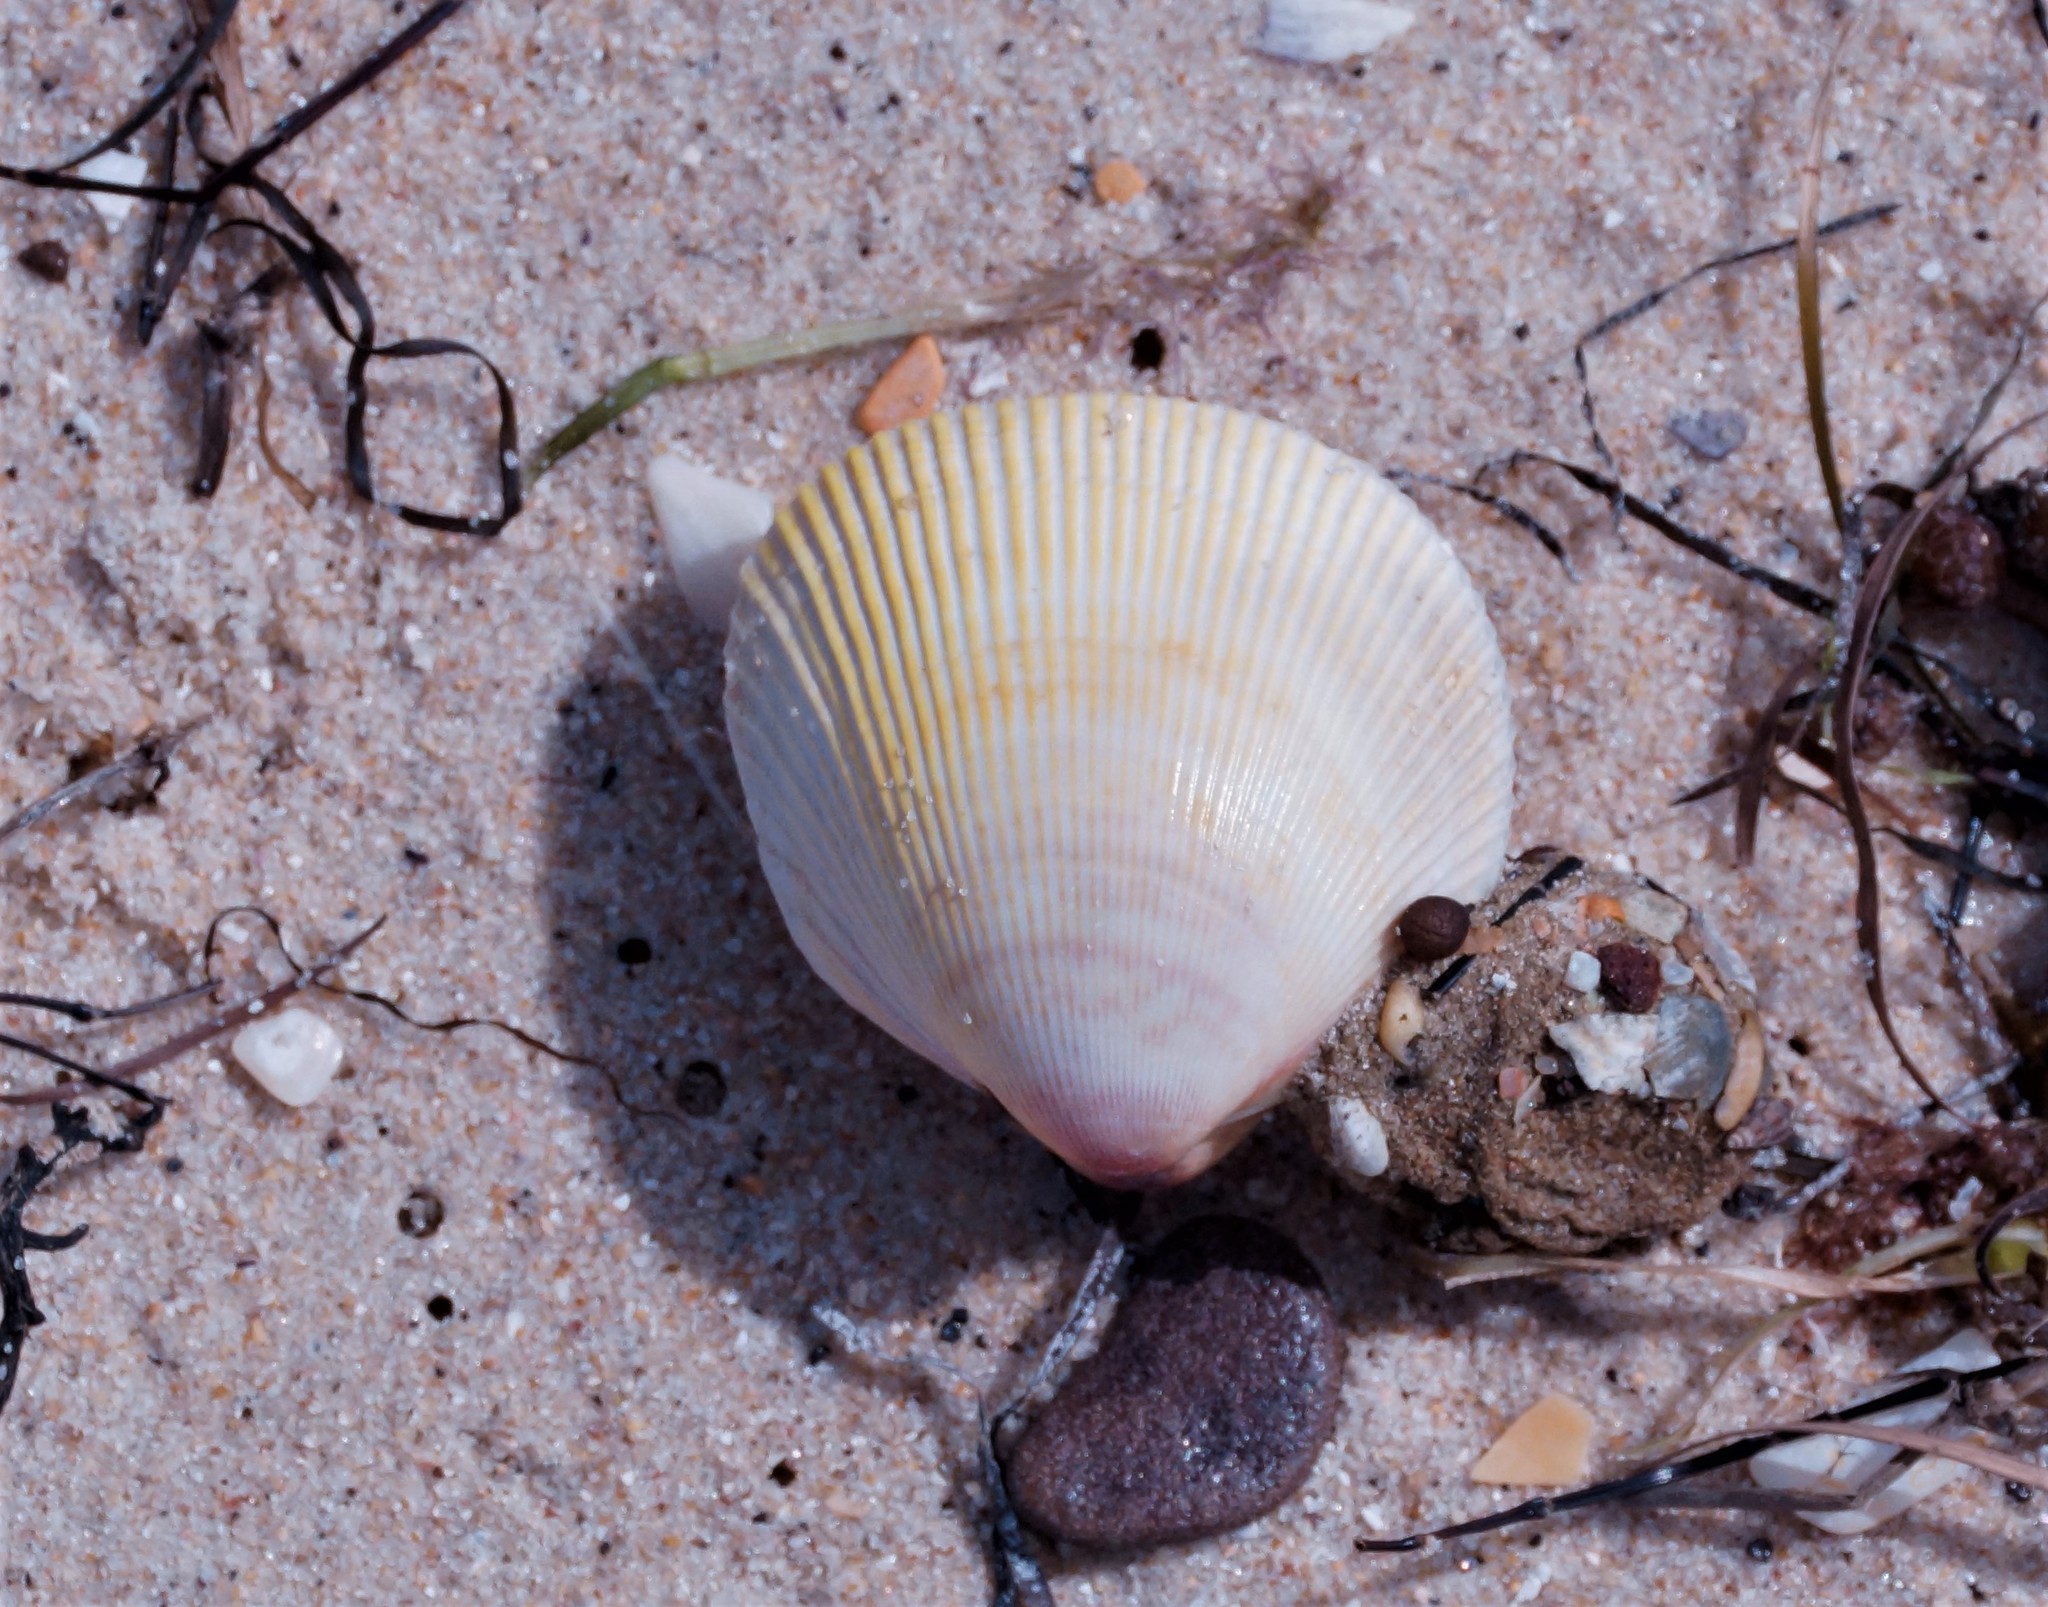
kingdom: Animalia
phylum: Mollusca
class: Bivalvia
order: Cardiida
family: Cardiidae
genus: Fulvia
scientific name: Fulvia tenuicostata
